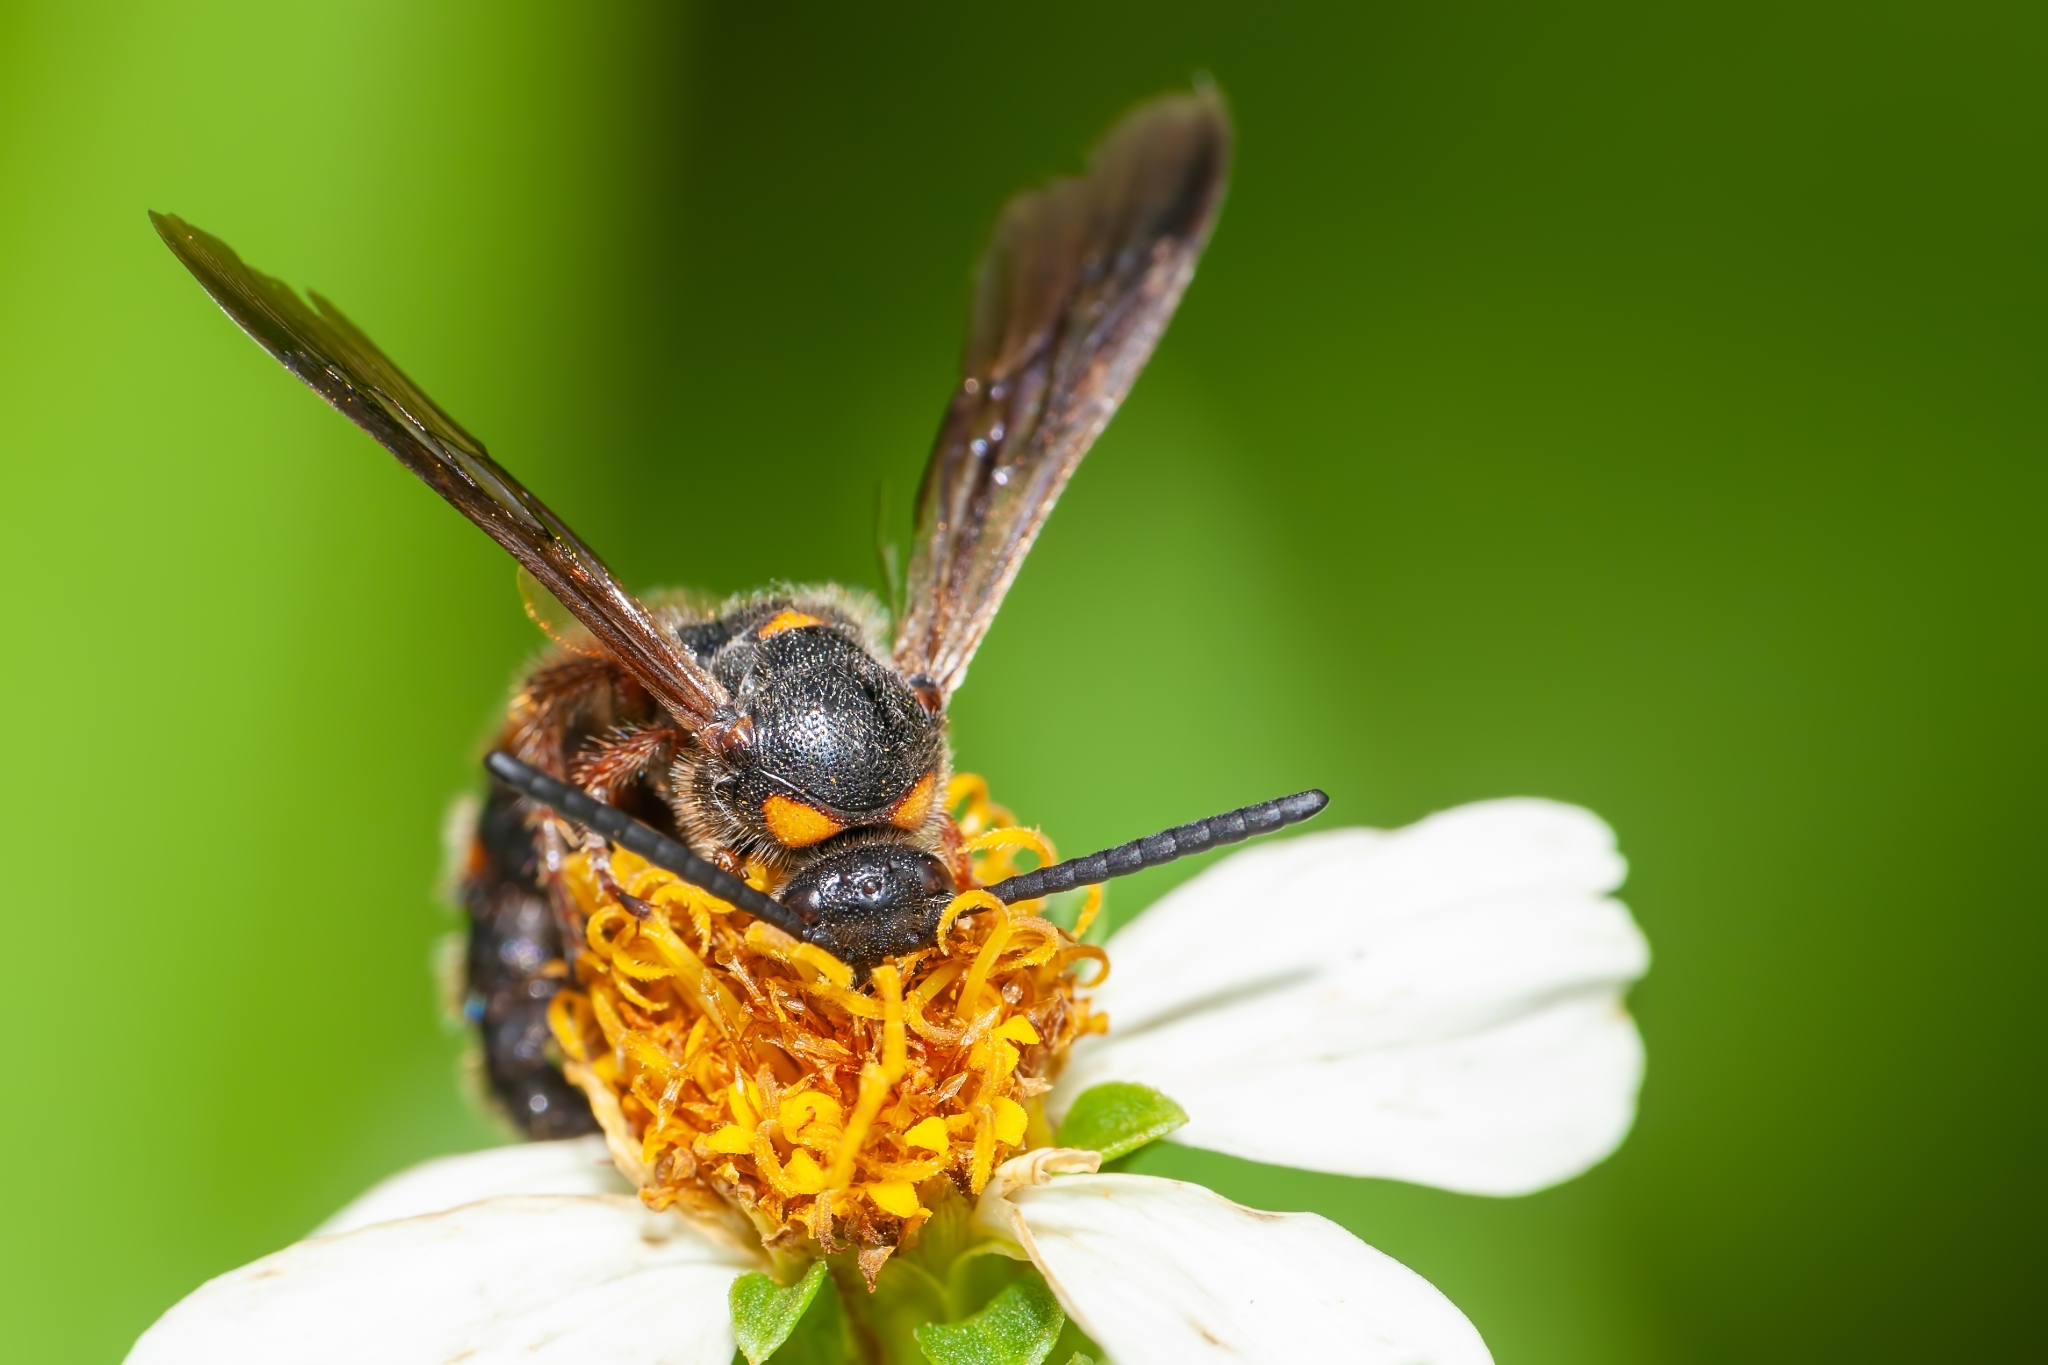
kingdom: Animalia
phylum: Arthropoda
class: Insecta
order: Hymenoptera
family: Scoliidae
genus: Scolia
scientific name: Scolia nobilitata
